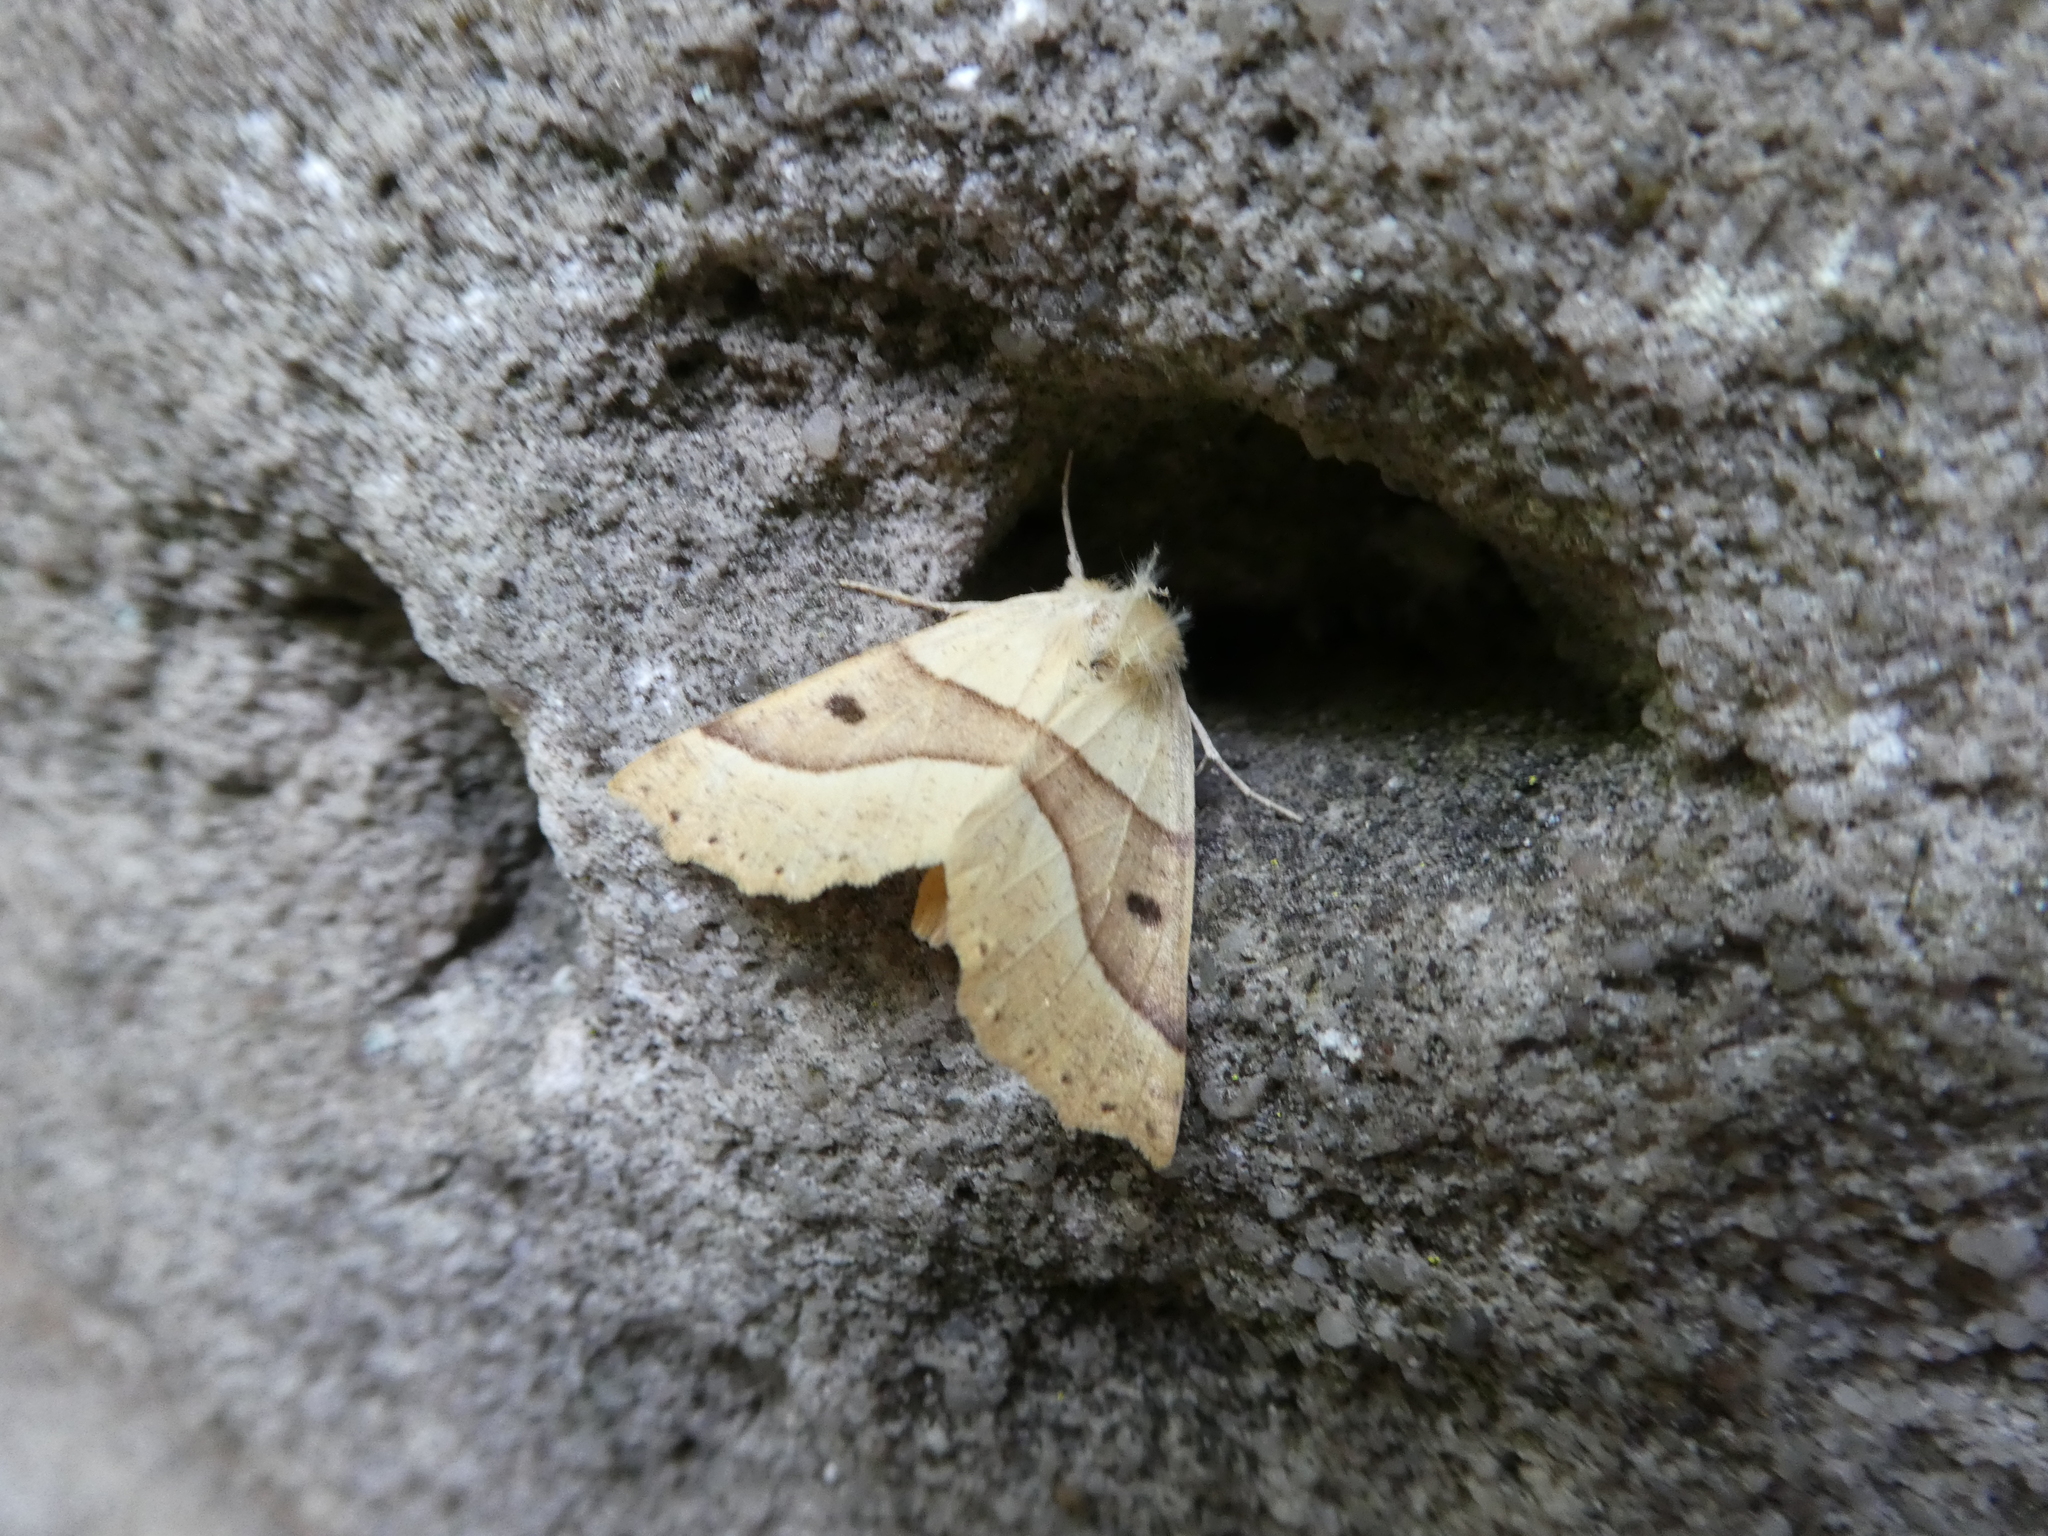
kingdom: Animalia
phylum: Arthropoda
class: Insecta
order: Lepidoptera
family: Geometridae
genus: Crocallis
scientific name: Crocallis elinguaria
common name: Scalloped oak
